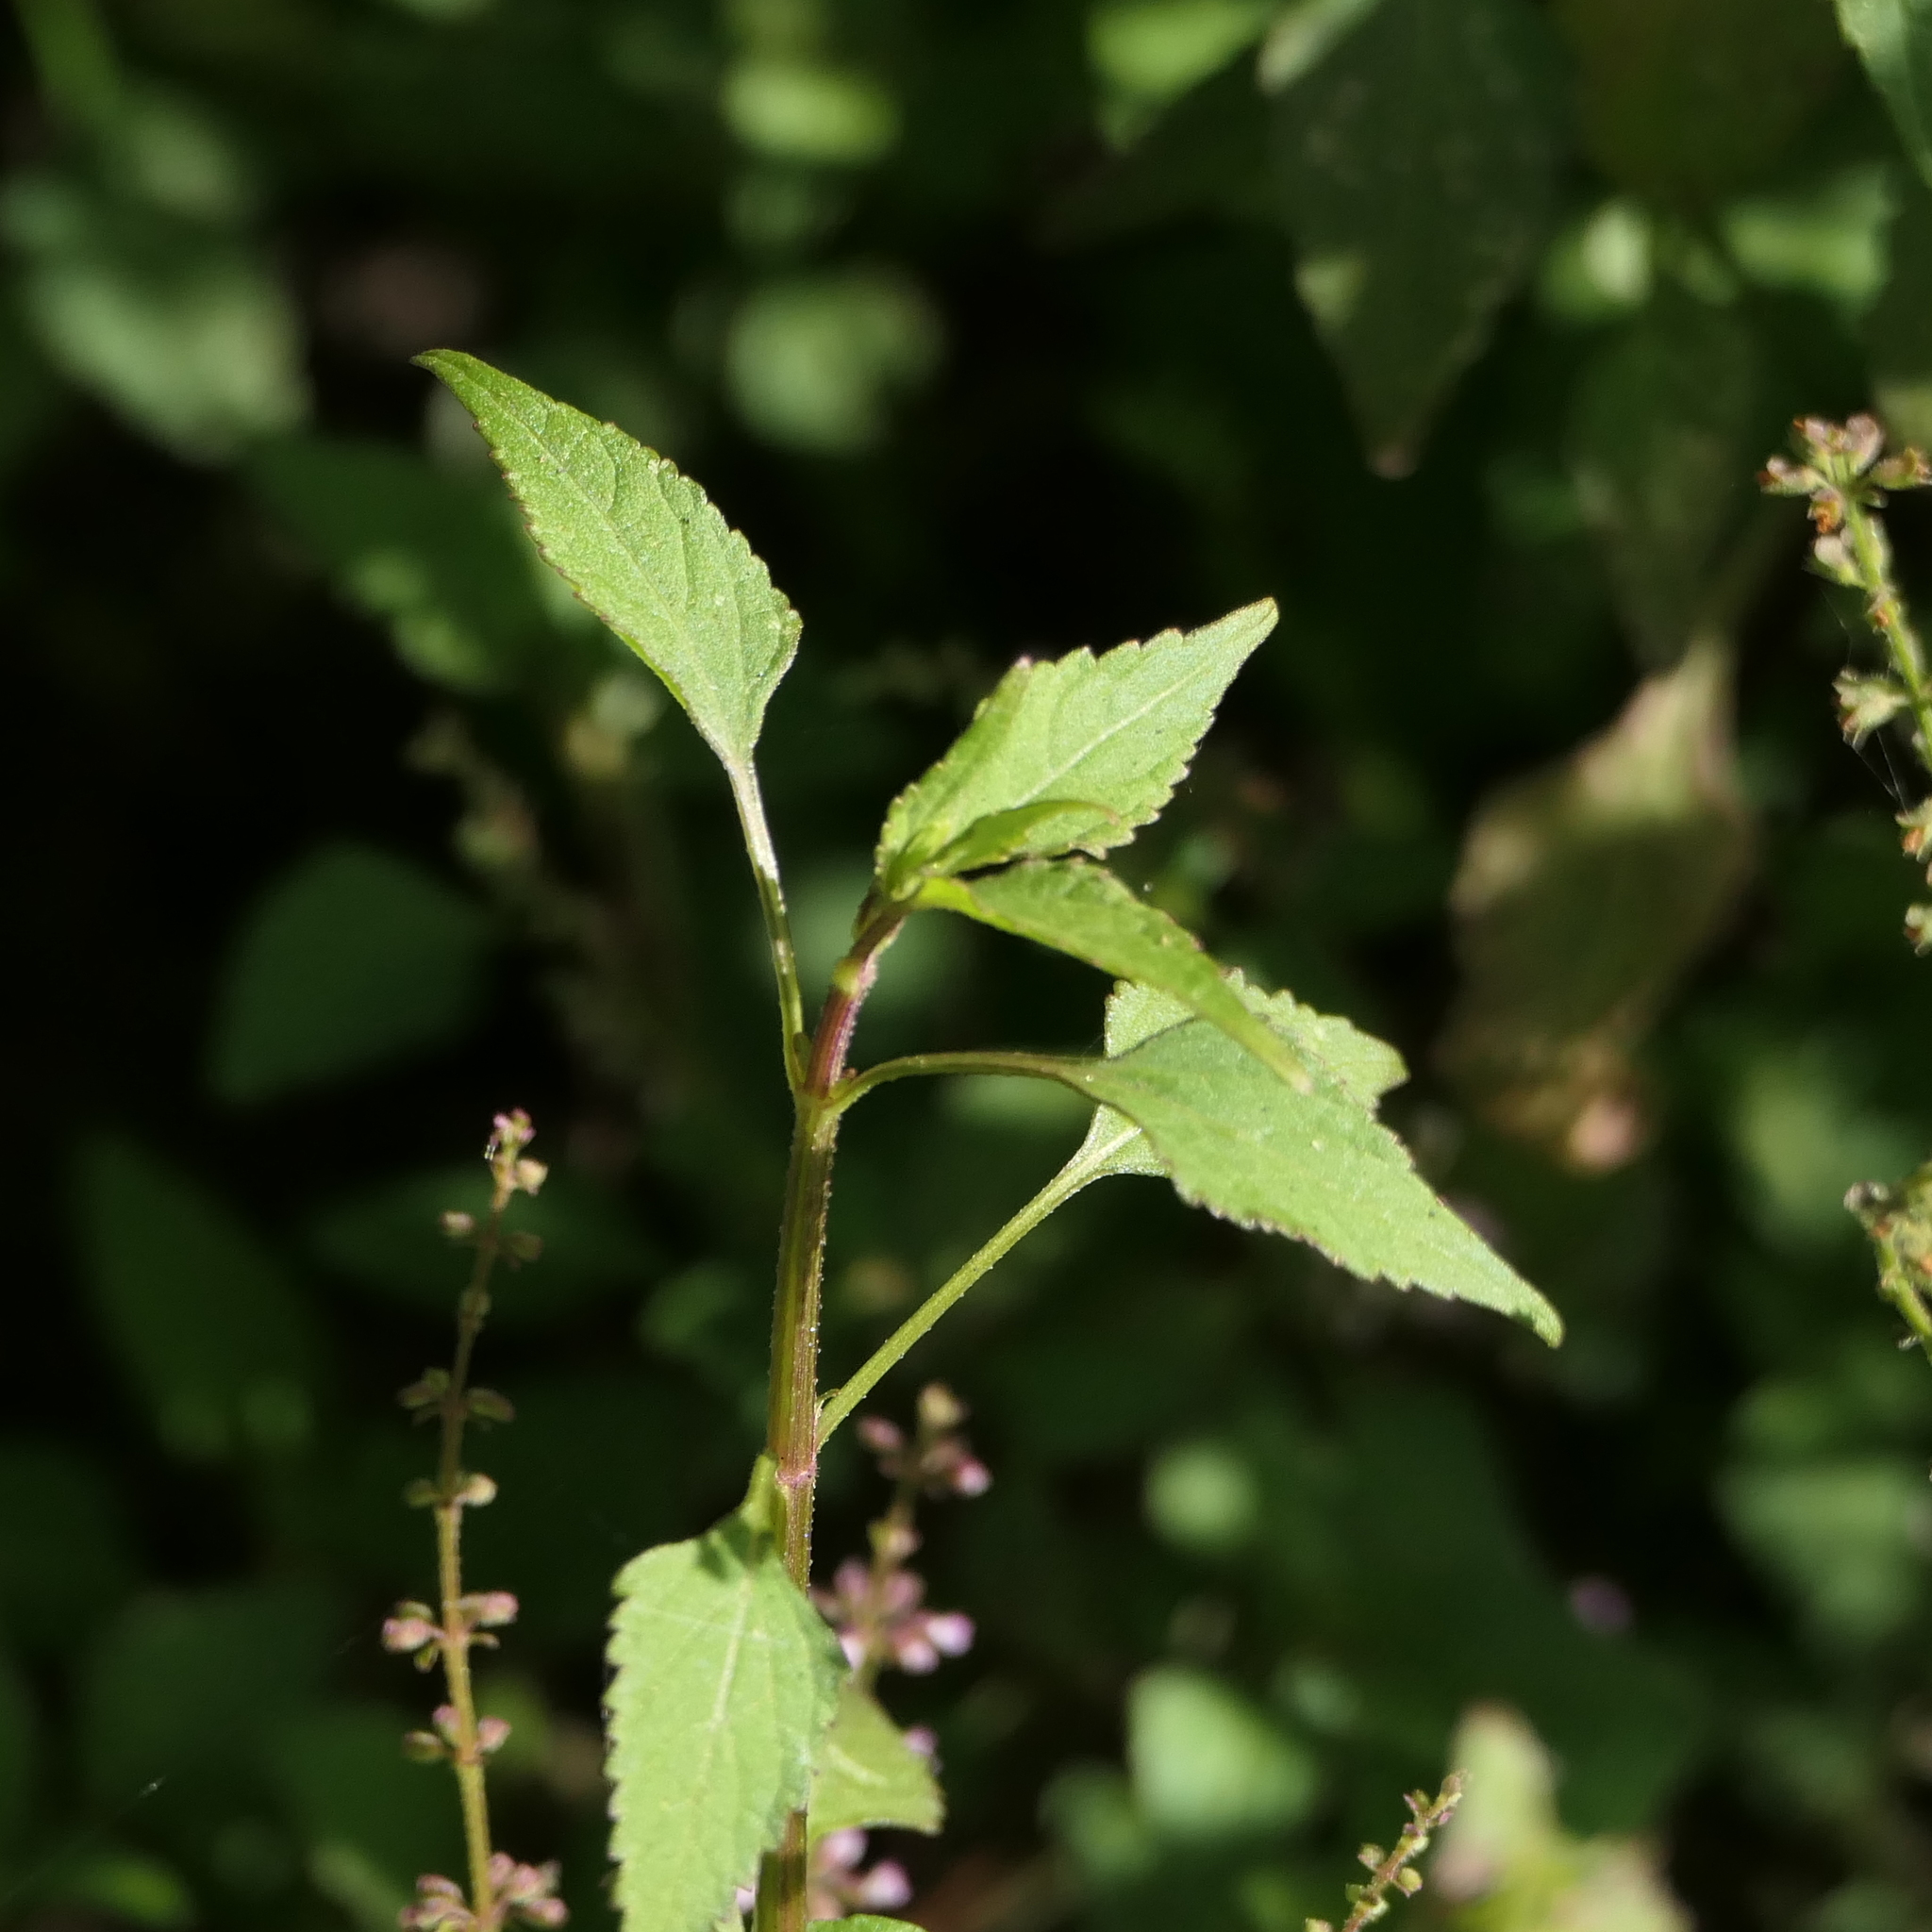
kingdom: Plantae
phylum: Tracheophyta
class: Magnoliopsida
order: Lamiales
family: Lamiaceae
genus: Basilicum
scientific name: Basilicum polystachyon
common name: Musk-basil
